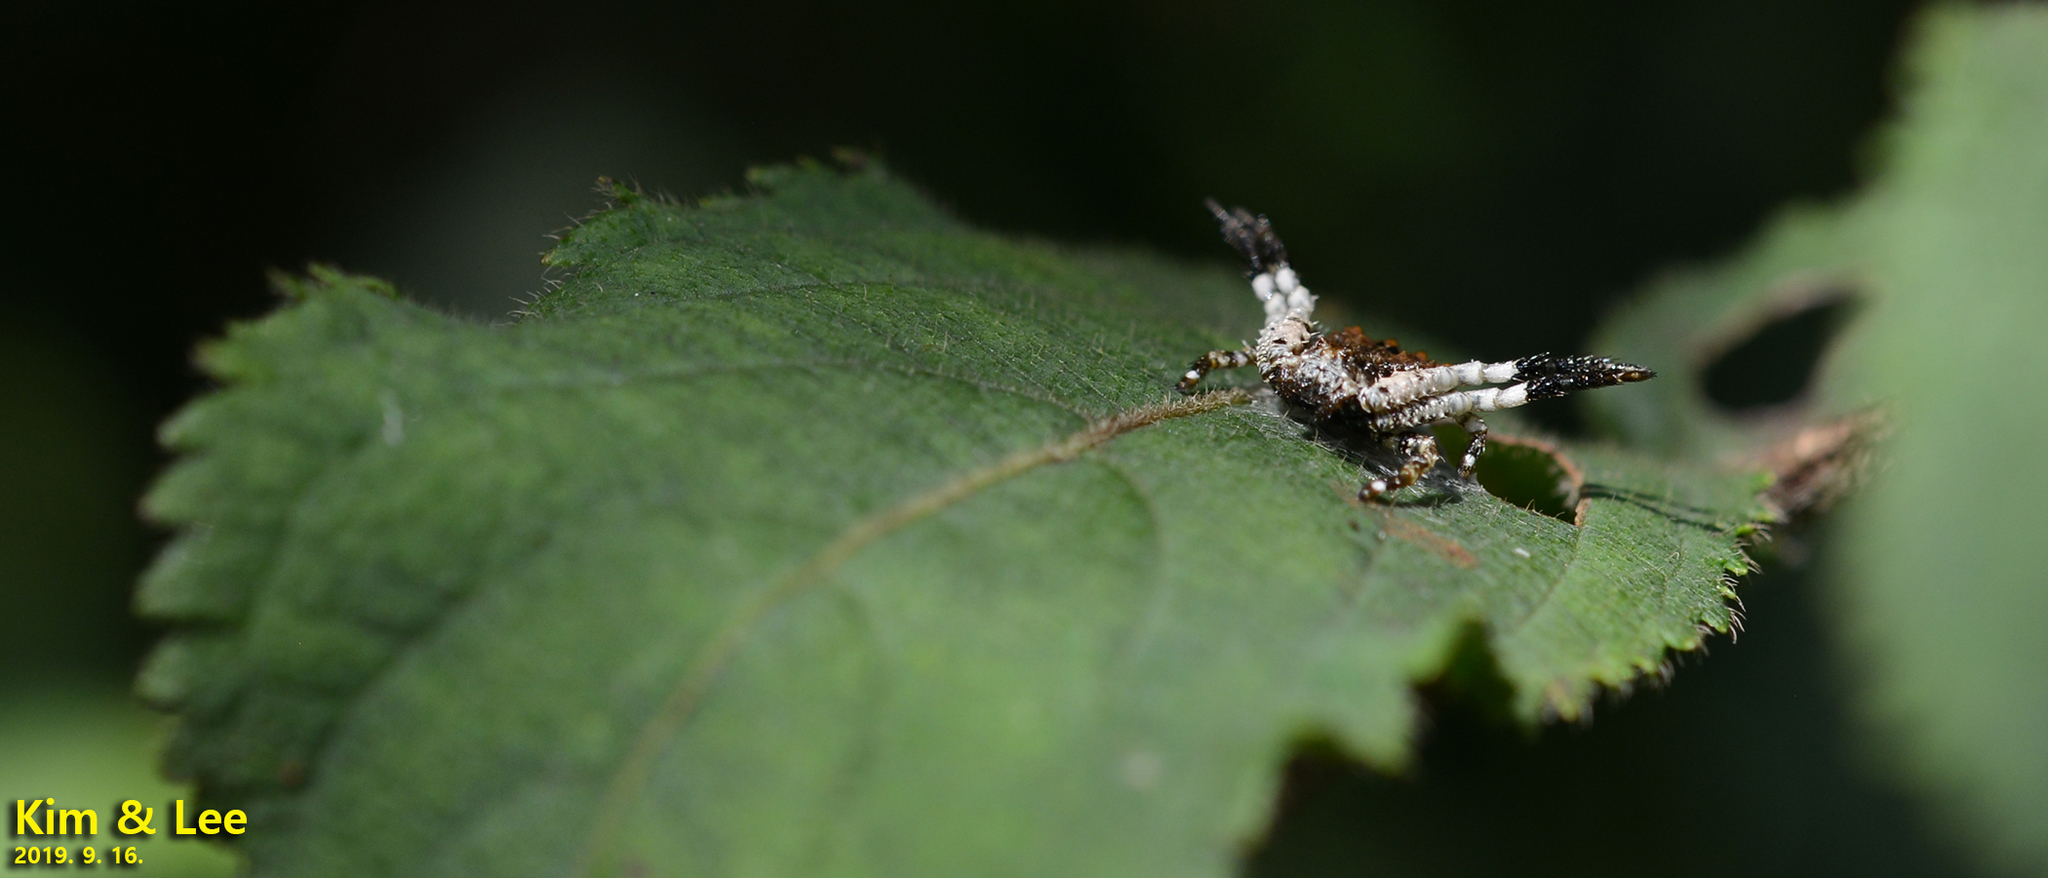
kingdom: Animalia
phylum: Arthropoda
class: Arachnida
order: Araneae
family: Thomisidae
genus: Phrynarachne
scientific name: Phrynarachne katoi
